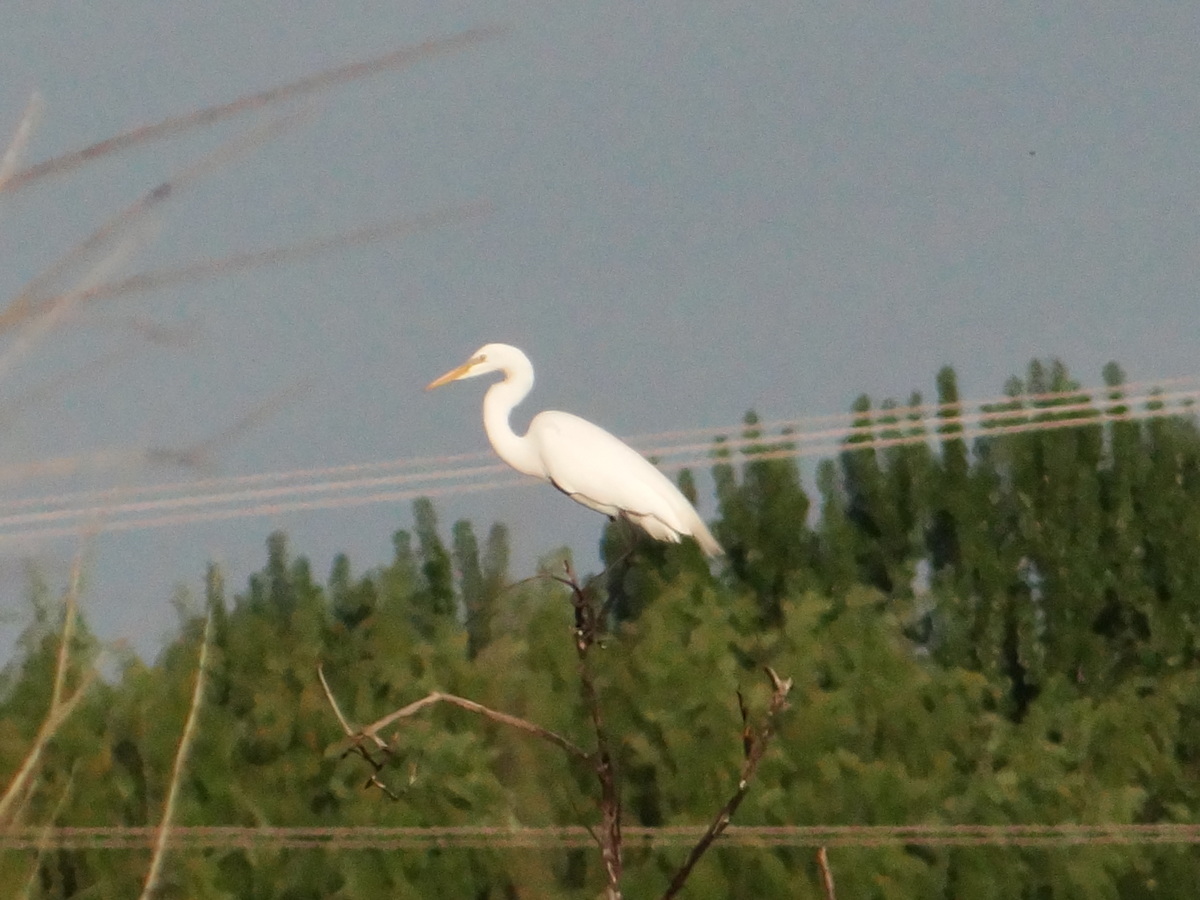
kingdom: Animalia
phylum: Chordata
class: Aves
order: Pelecaniformes
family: Ardeidae
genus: Ardea
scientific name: Ardea alba
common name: Great egret
